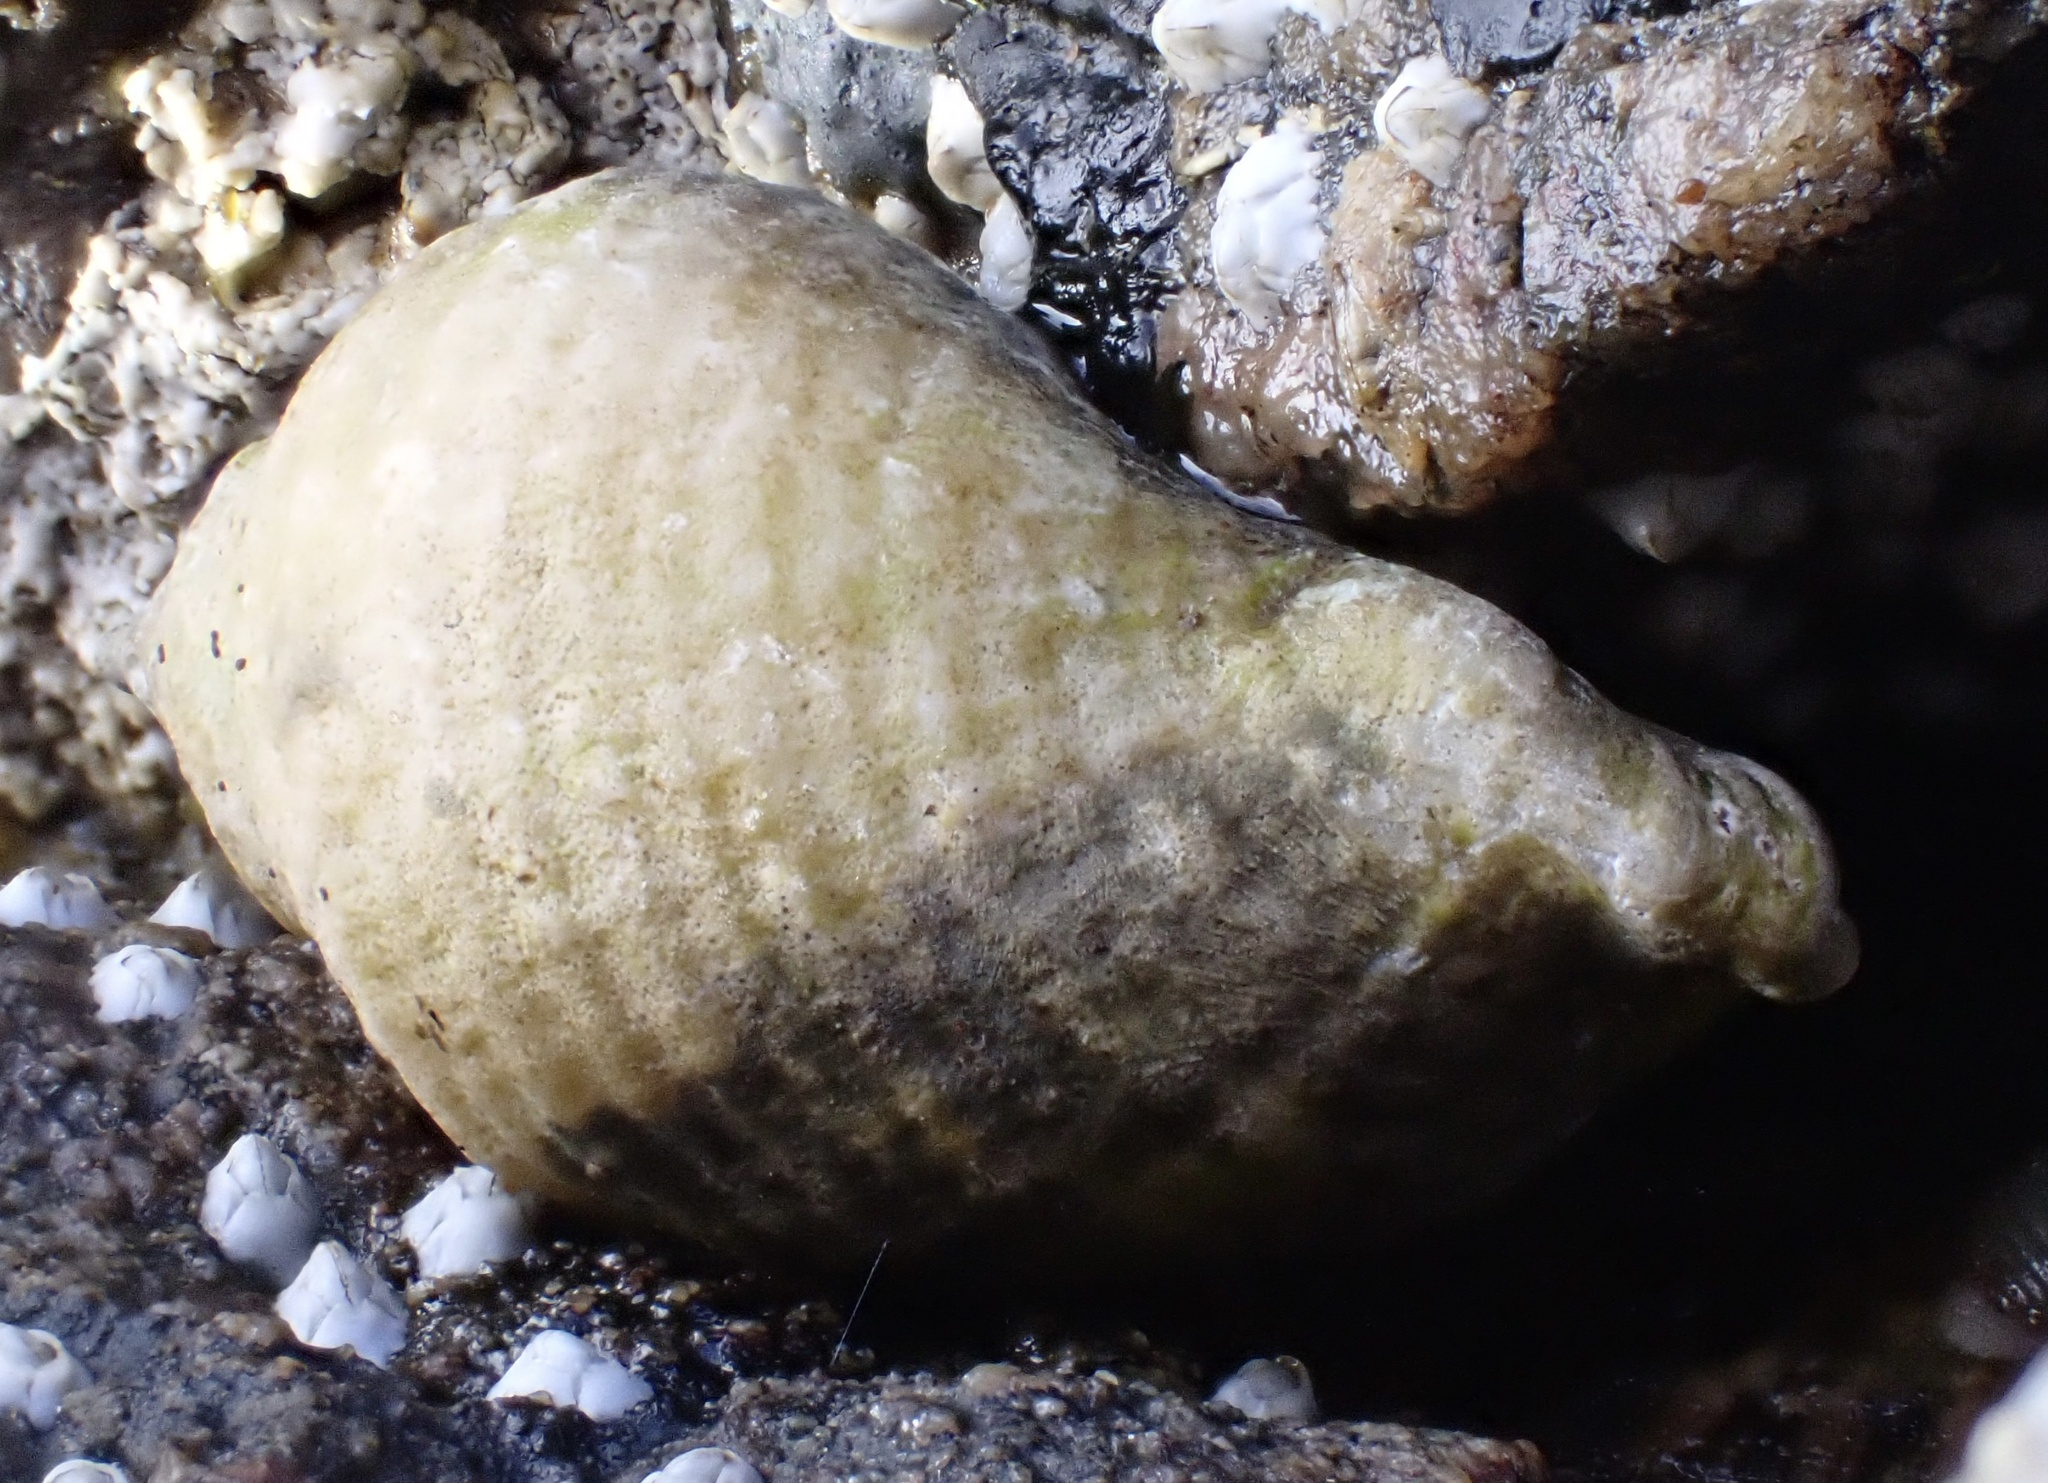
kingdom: Animalia
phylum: Mollusca
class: Gastropoda
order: Neogastropoda
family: Muricidae
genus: Nucella
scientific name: Nucella lapillus
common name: Dog whelk
